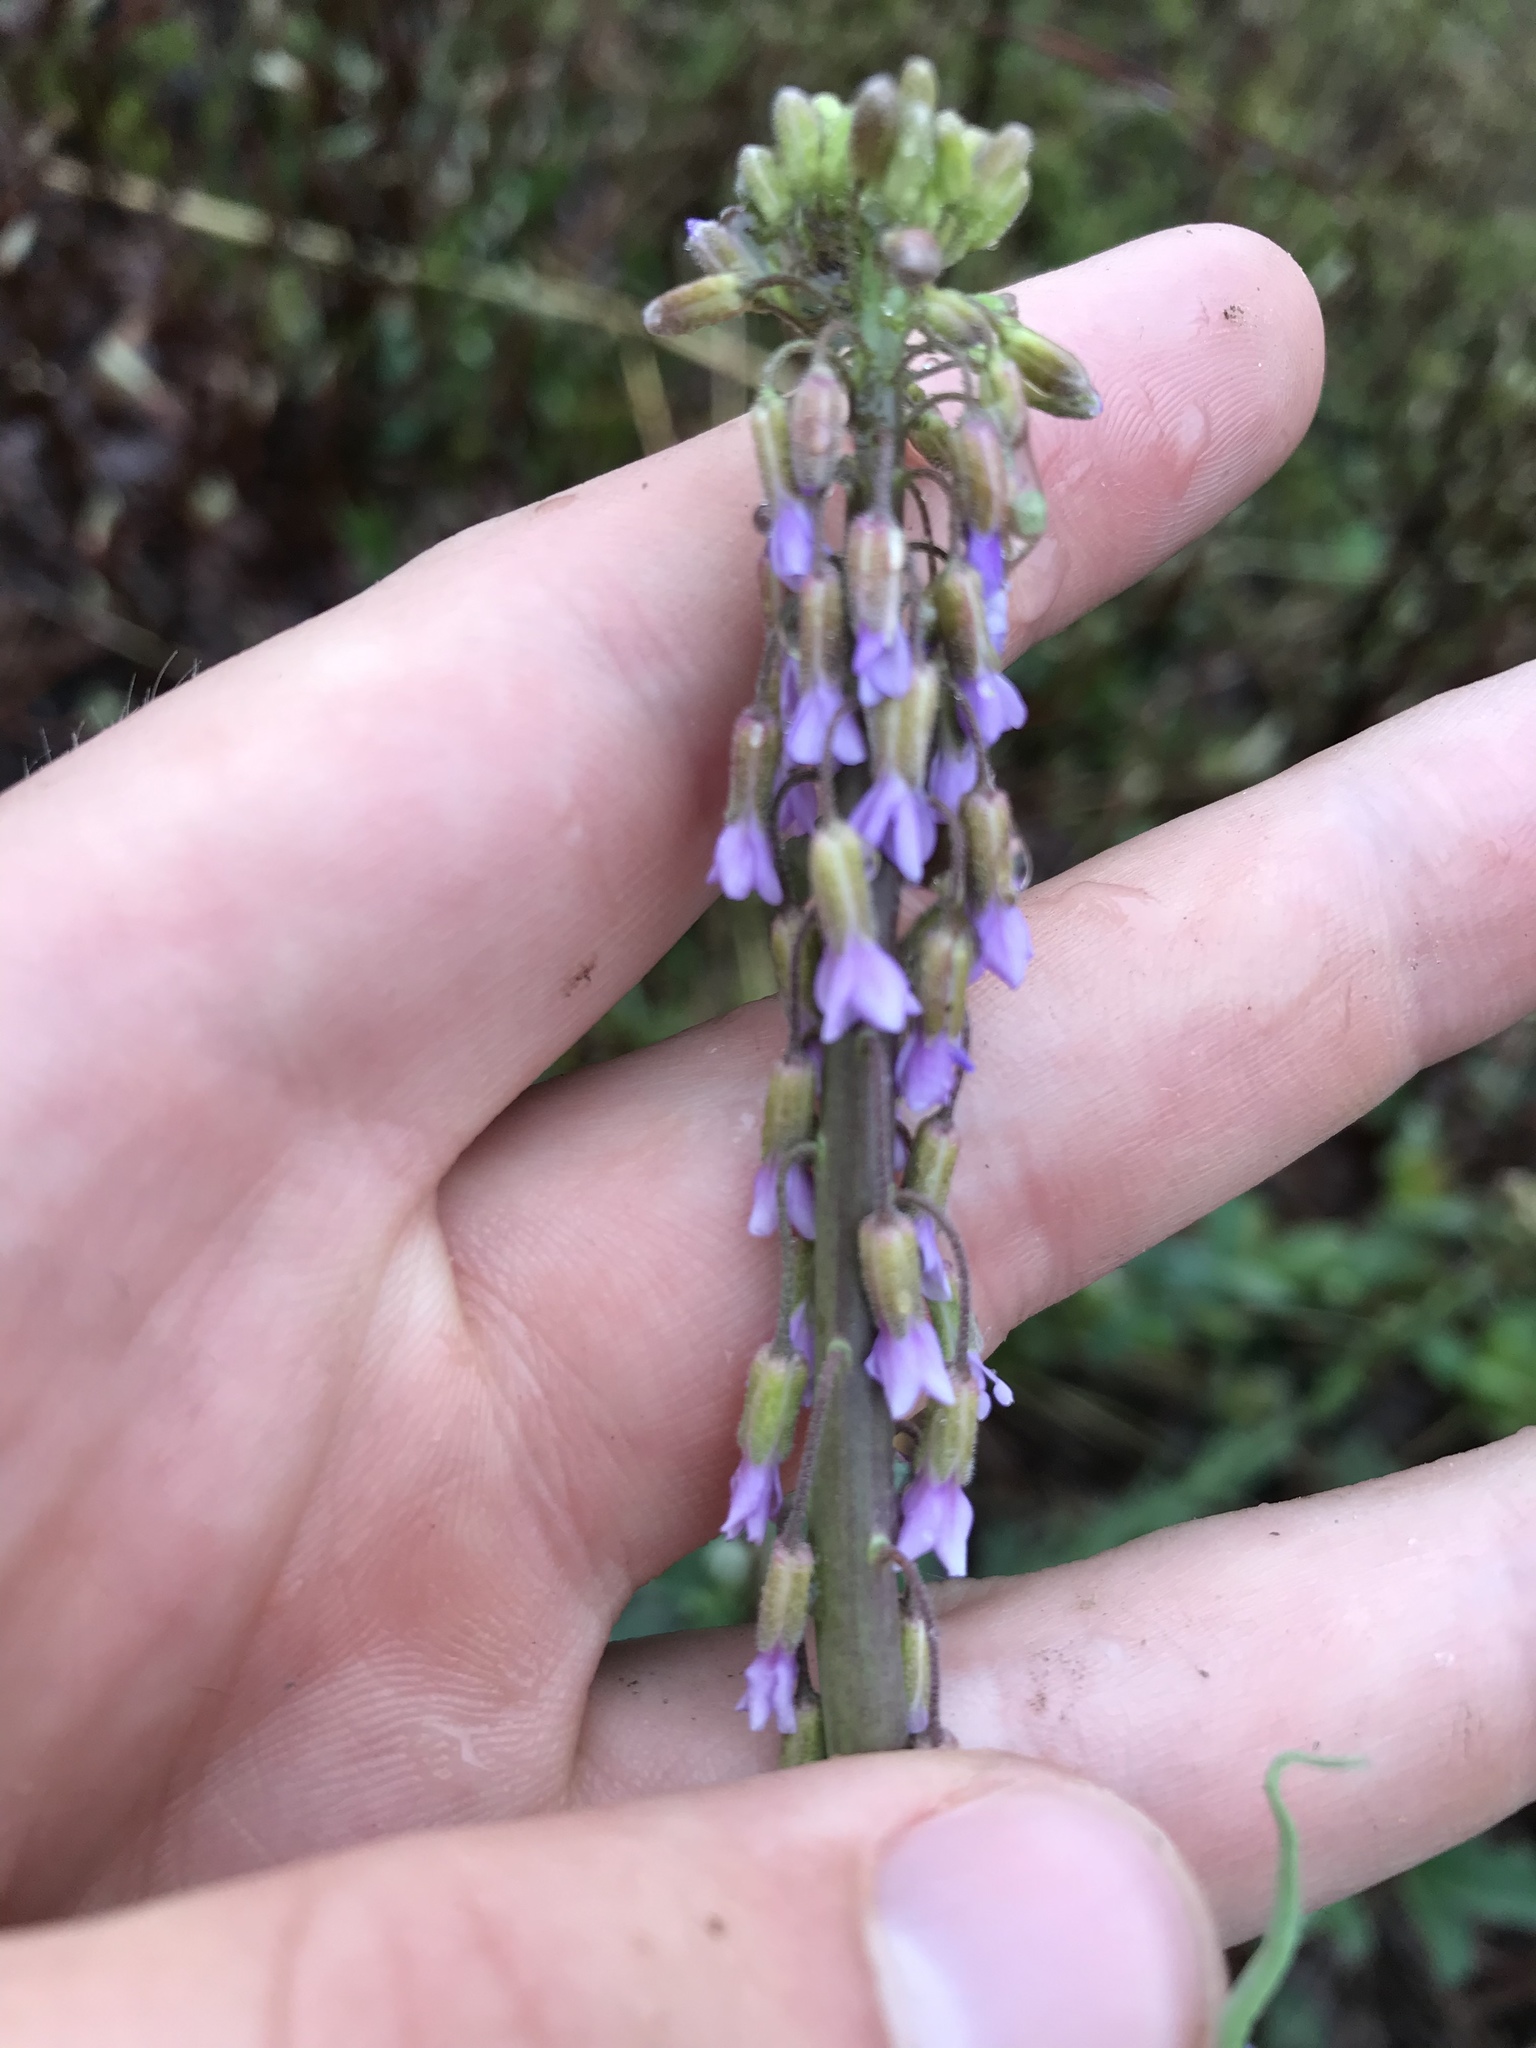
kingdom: Plantae
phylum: Tracheophyta
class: Magnoliopsida
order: Brassicales
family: Brassicaceae
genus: Boechera
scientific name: Boechera retrofracta
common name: Dangling suncress
